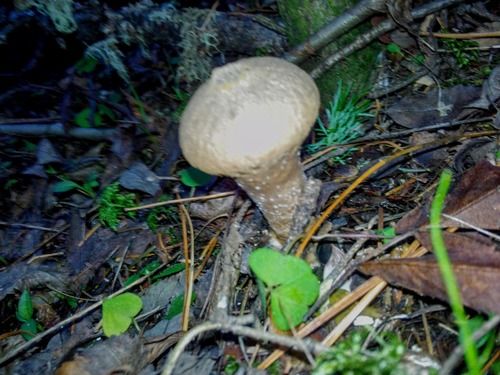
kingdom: Fungi
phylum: Basidiomycota
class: Agaricomycetes
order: Agaricales
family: Lycoperdaceae
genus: Lycoperdon
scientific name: Lycoperdon
